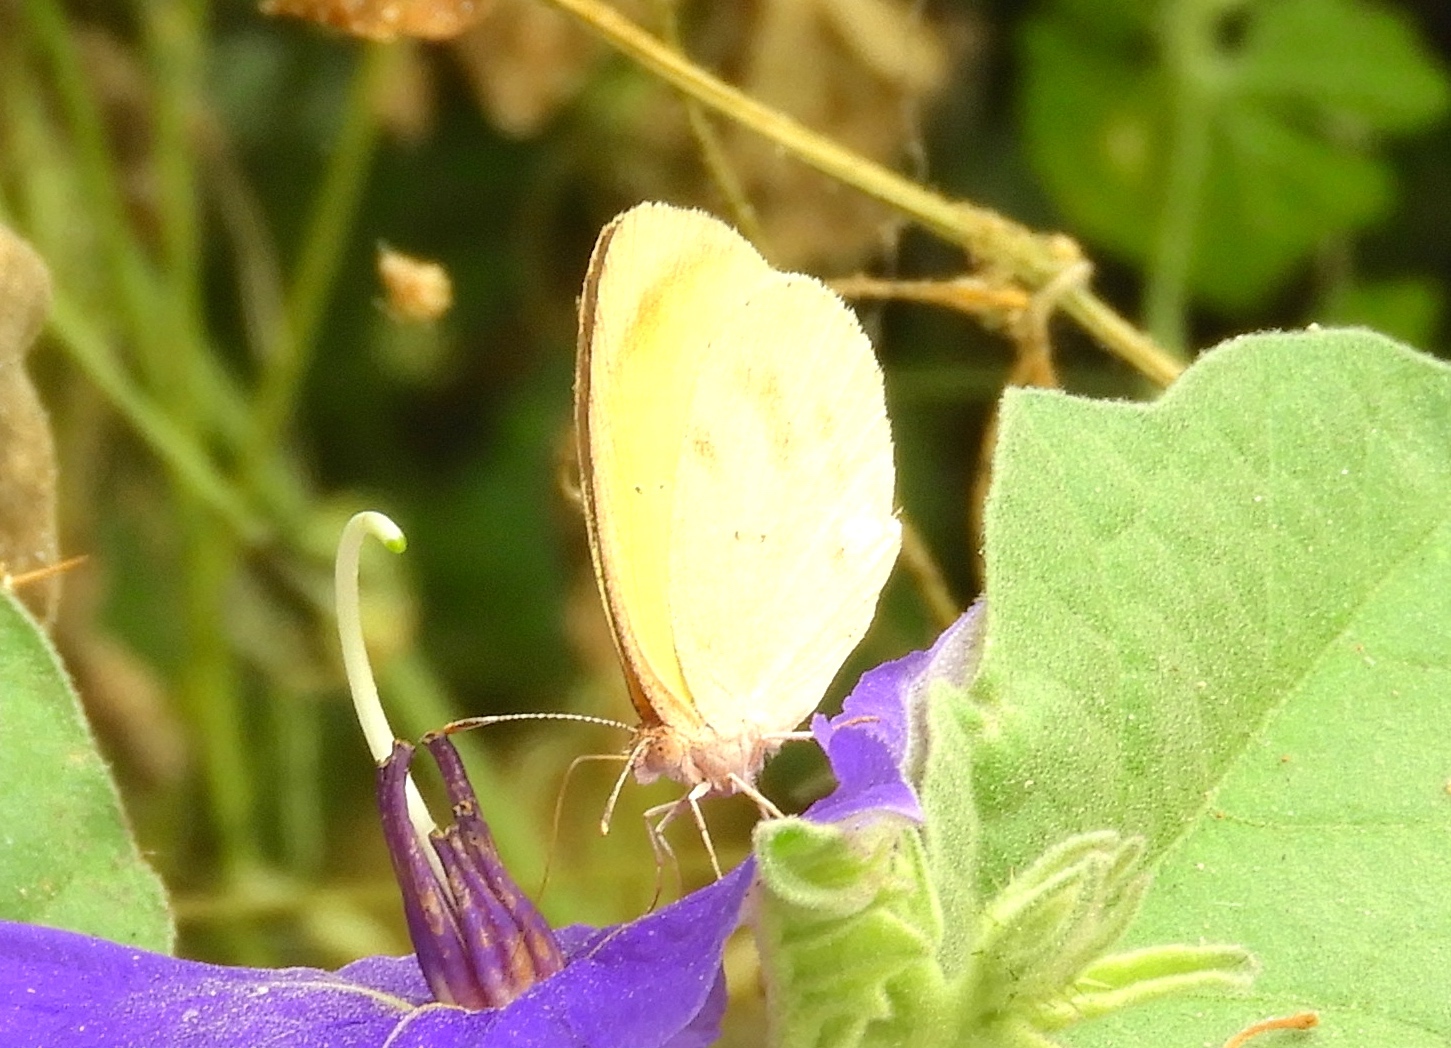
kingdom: Animalia
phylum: Arthropoda
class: Insecta
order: Lepidoptera
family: Pieridae
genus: Abaeis
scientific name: Abaeis boisduvaliana
